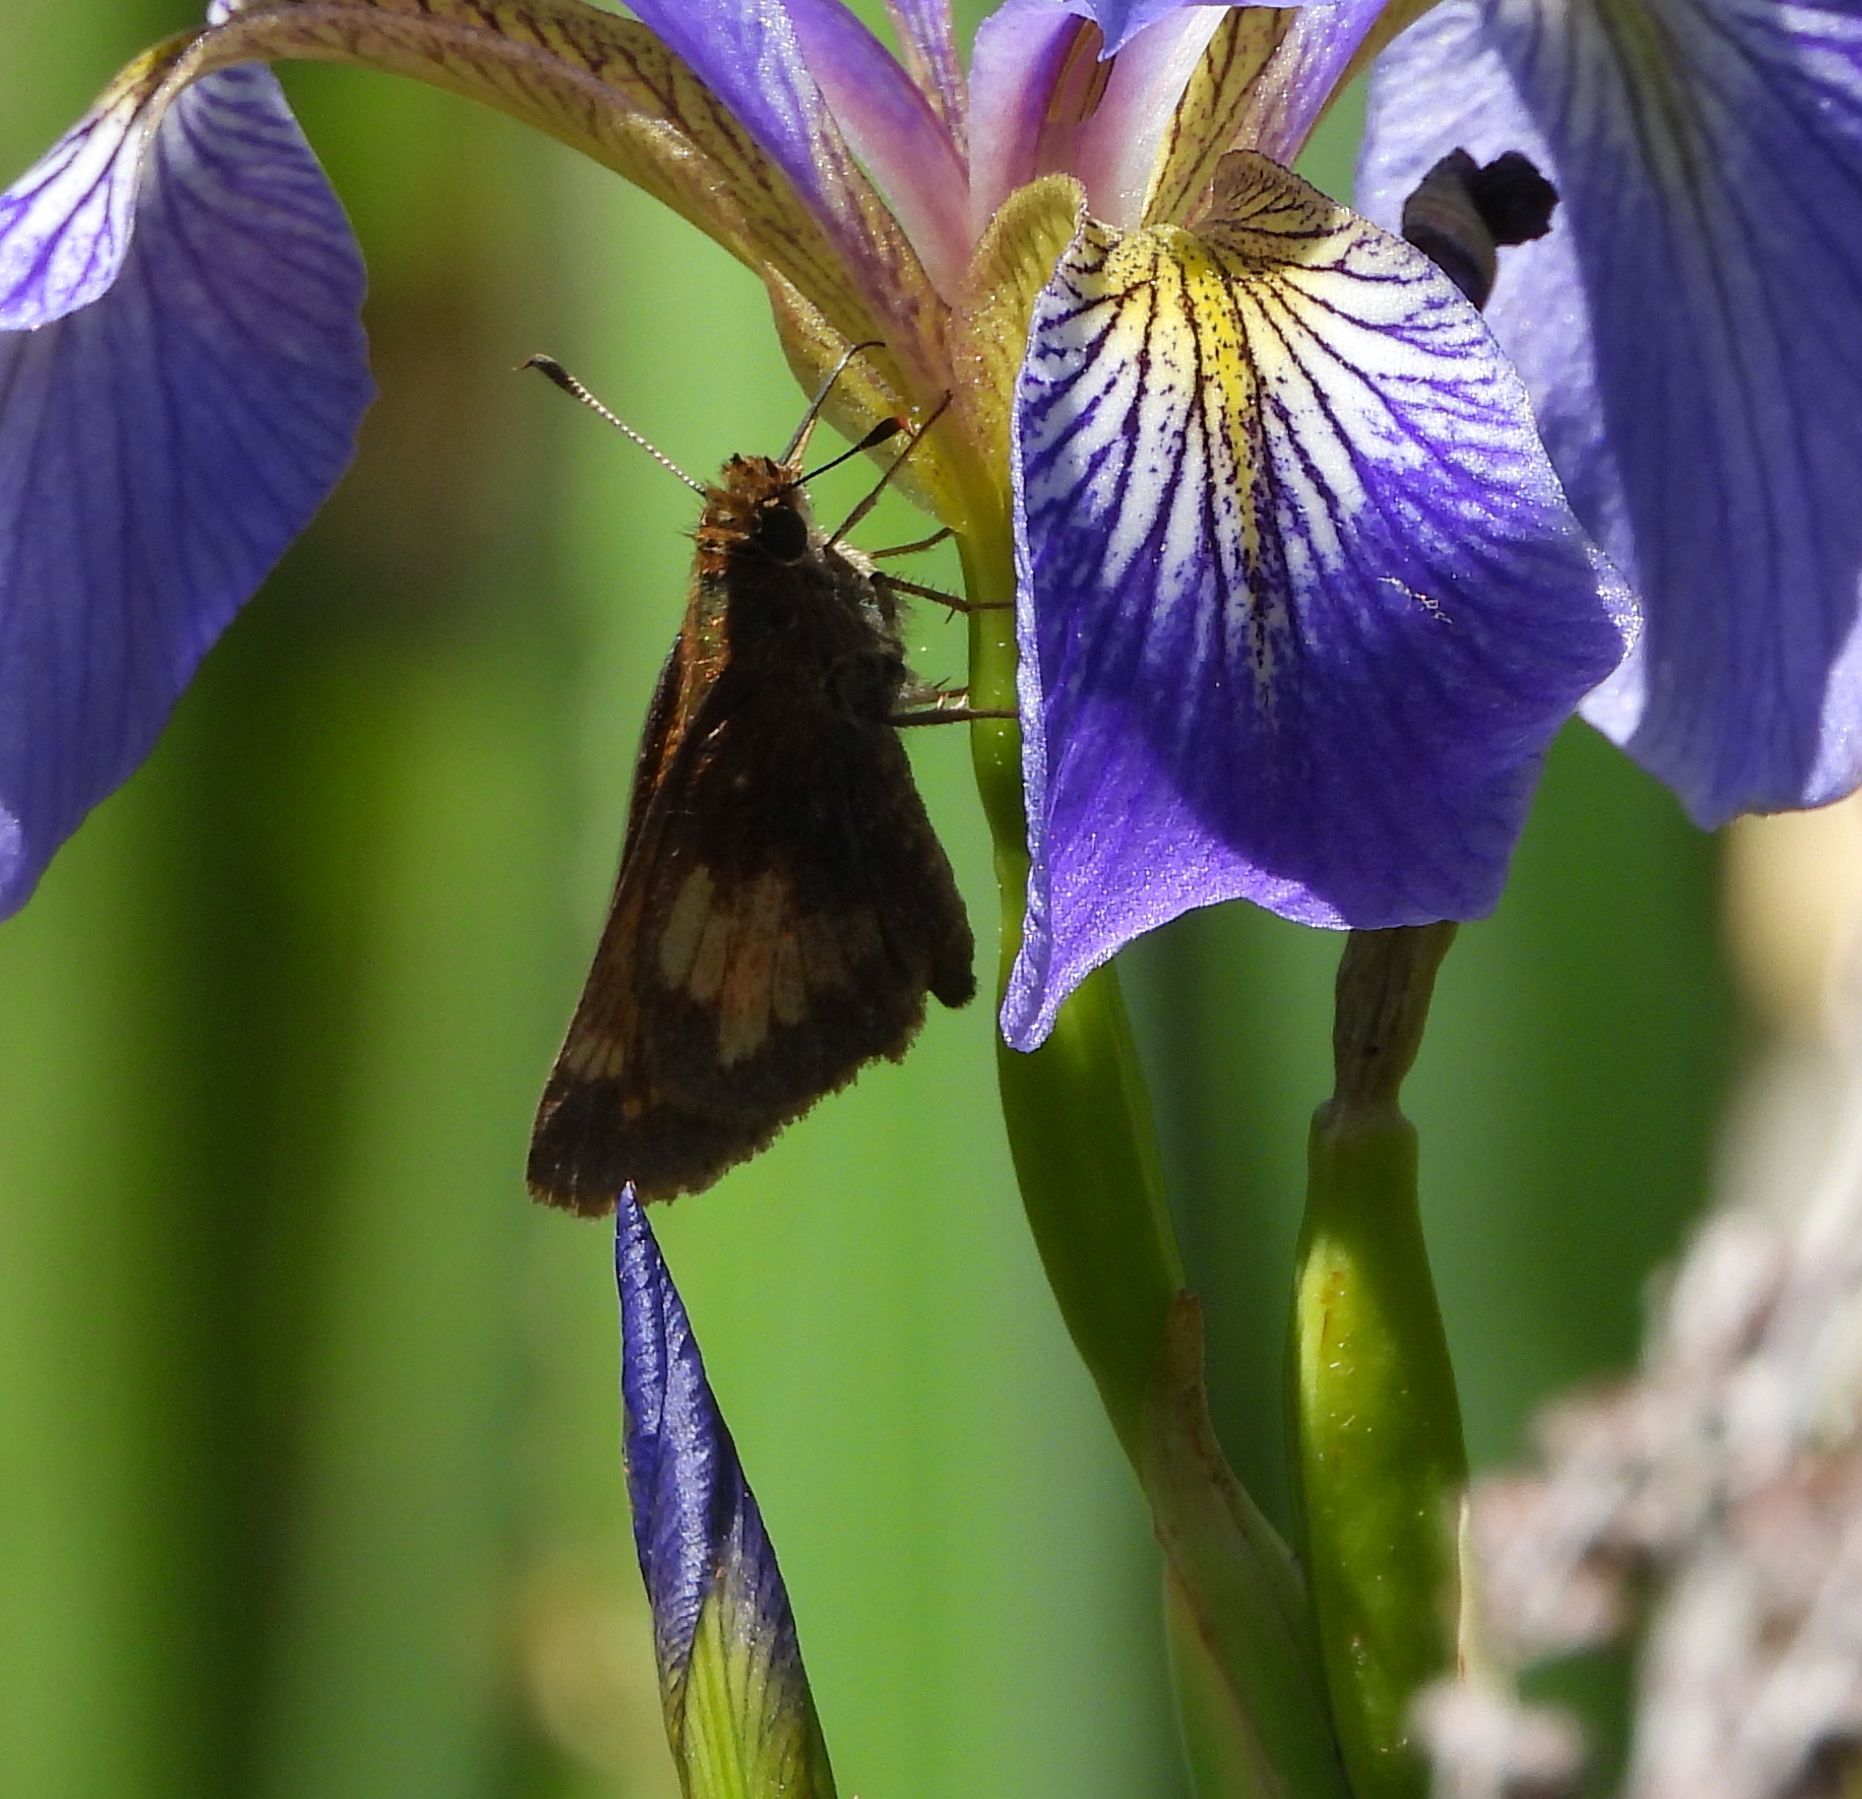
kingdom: Animalia
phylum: Arthropoda
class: Insecta
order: Lepidoptera
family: Hesperiidae
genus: Lon
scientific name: Lon hobomok
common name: Hobomok skipper
